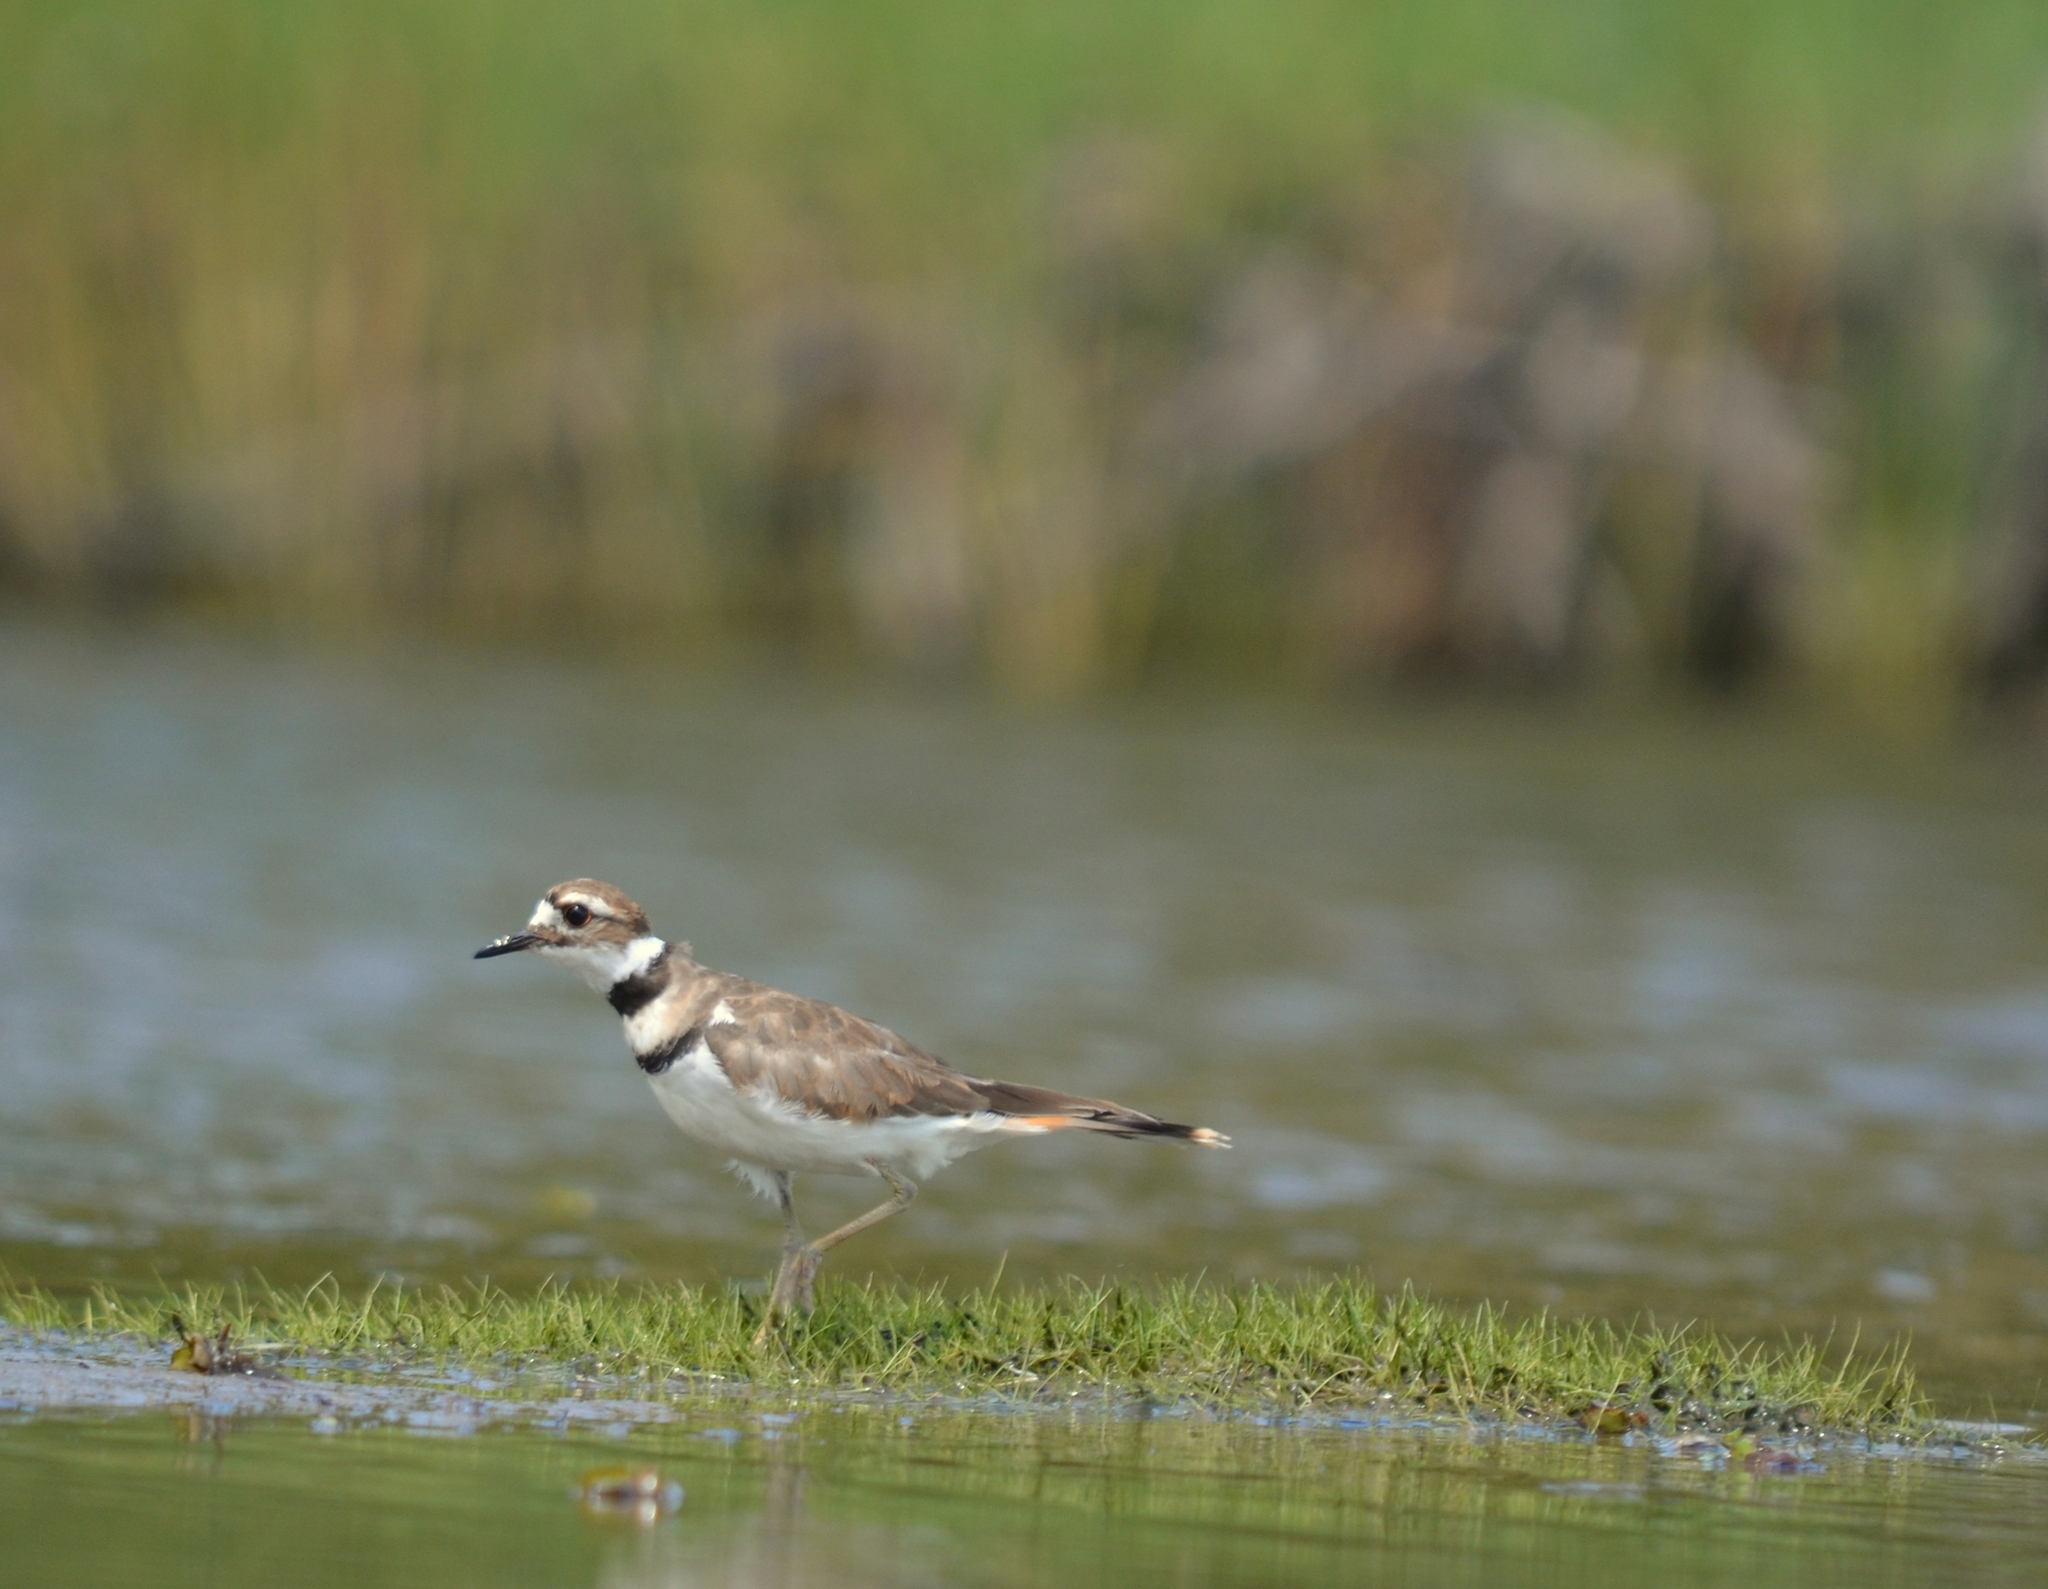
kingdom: Animalia
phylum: Chordata
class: Aves
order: Charadriiformes
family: Charadriidae
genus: Charadrius
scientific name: Charadrius vociferus
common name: Killdeer
